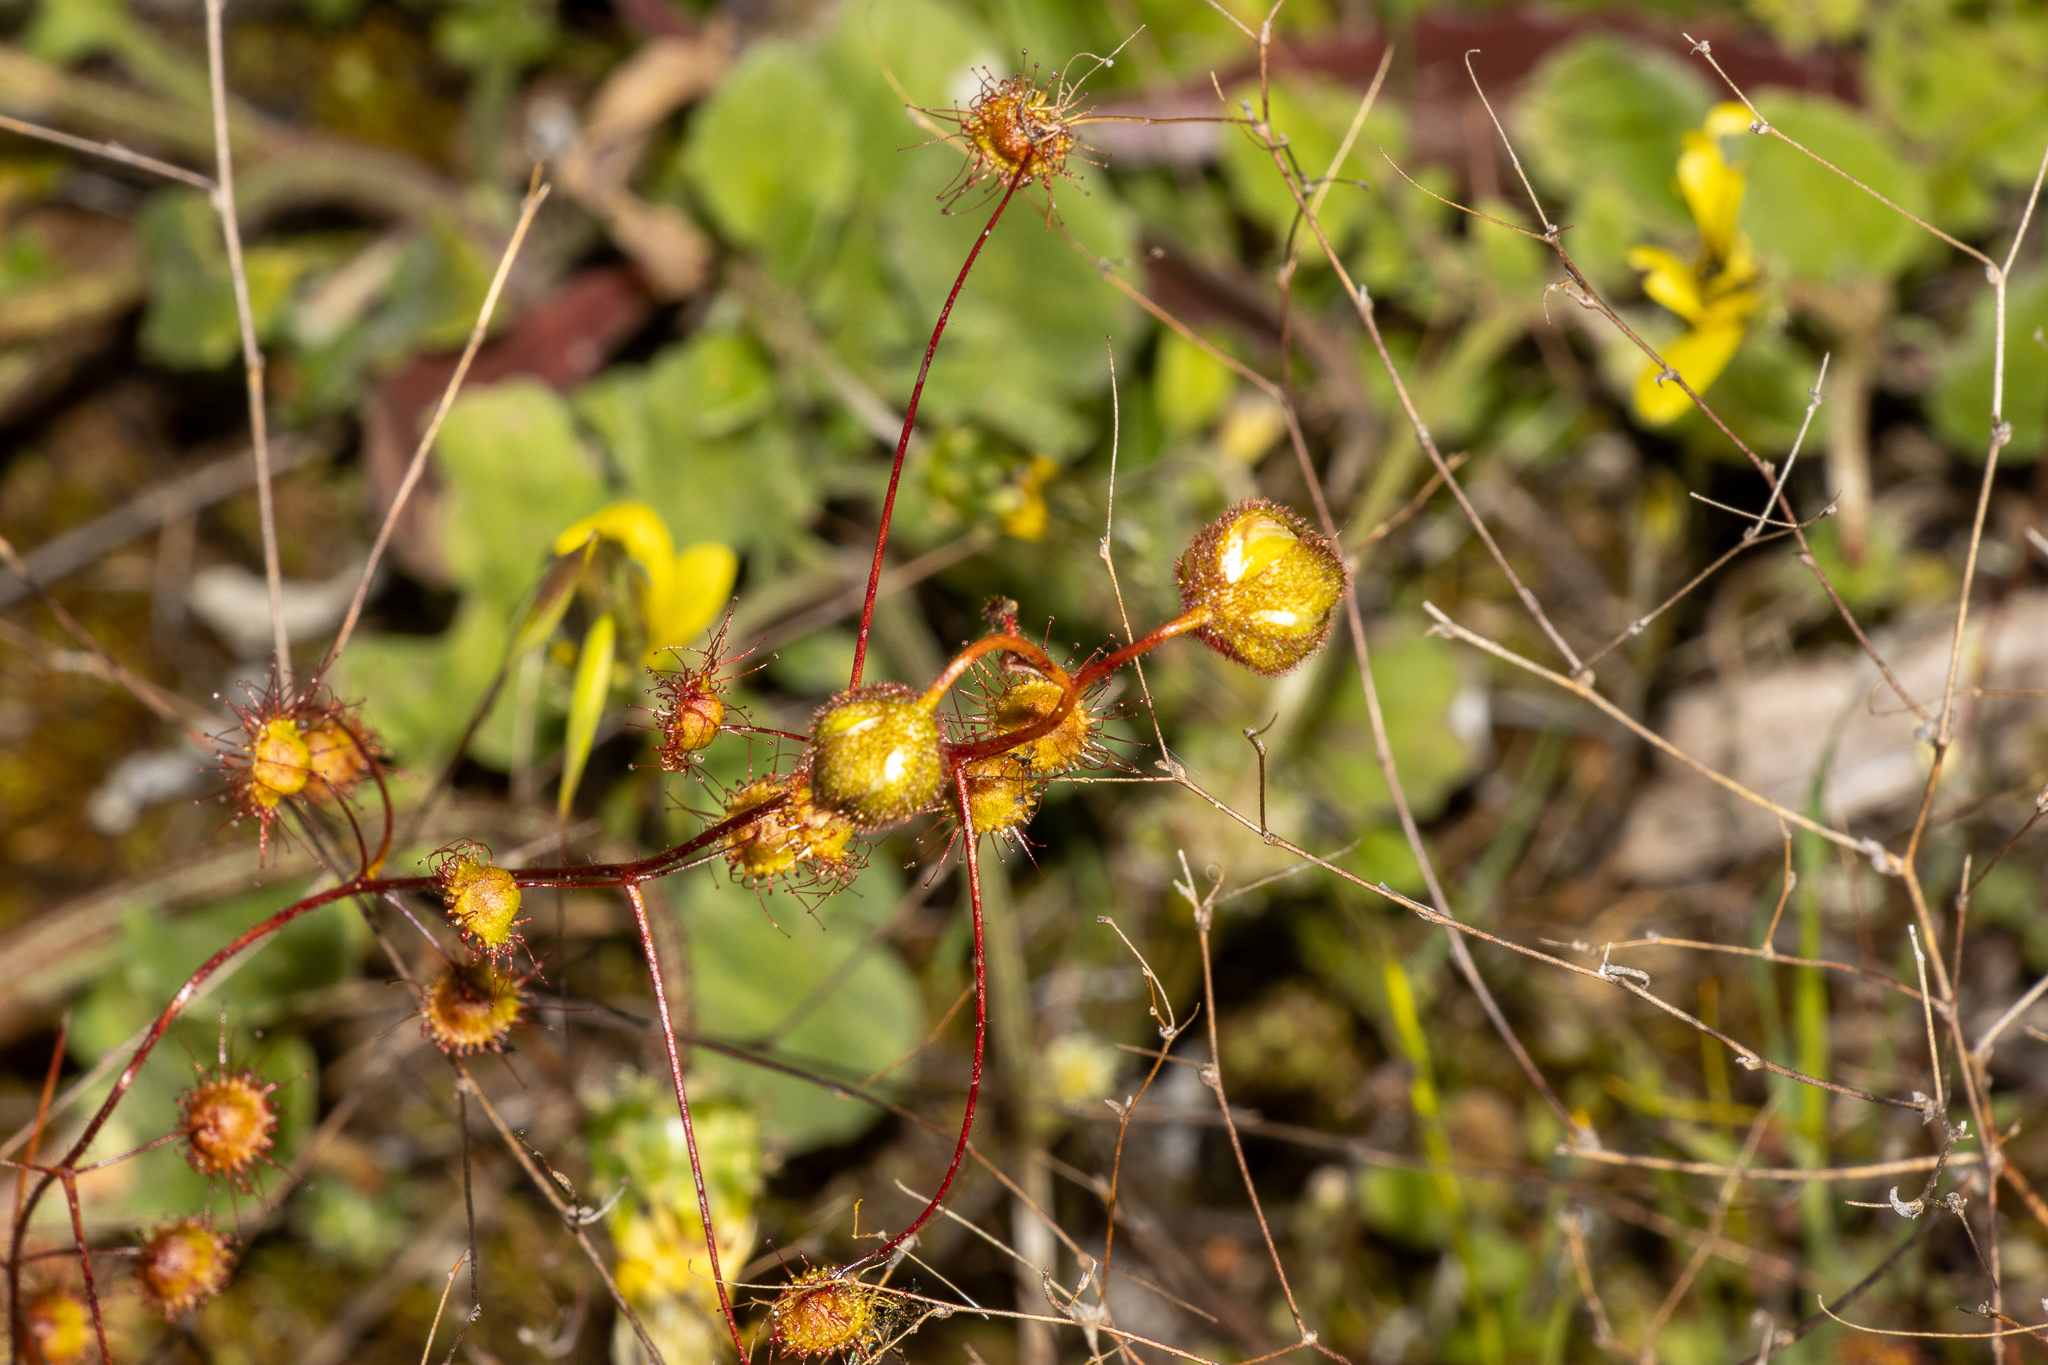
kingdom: Plantae
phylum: Tracheophyta
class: Magnoliopsida
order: Caryophyllales
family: Droseraceae
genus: Drosera
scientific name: Drosera planchonii
